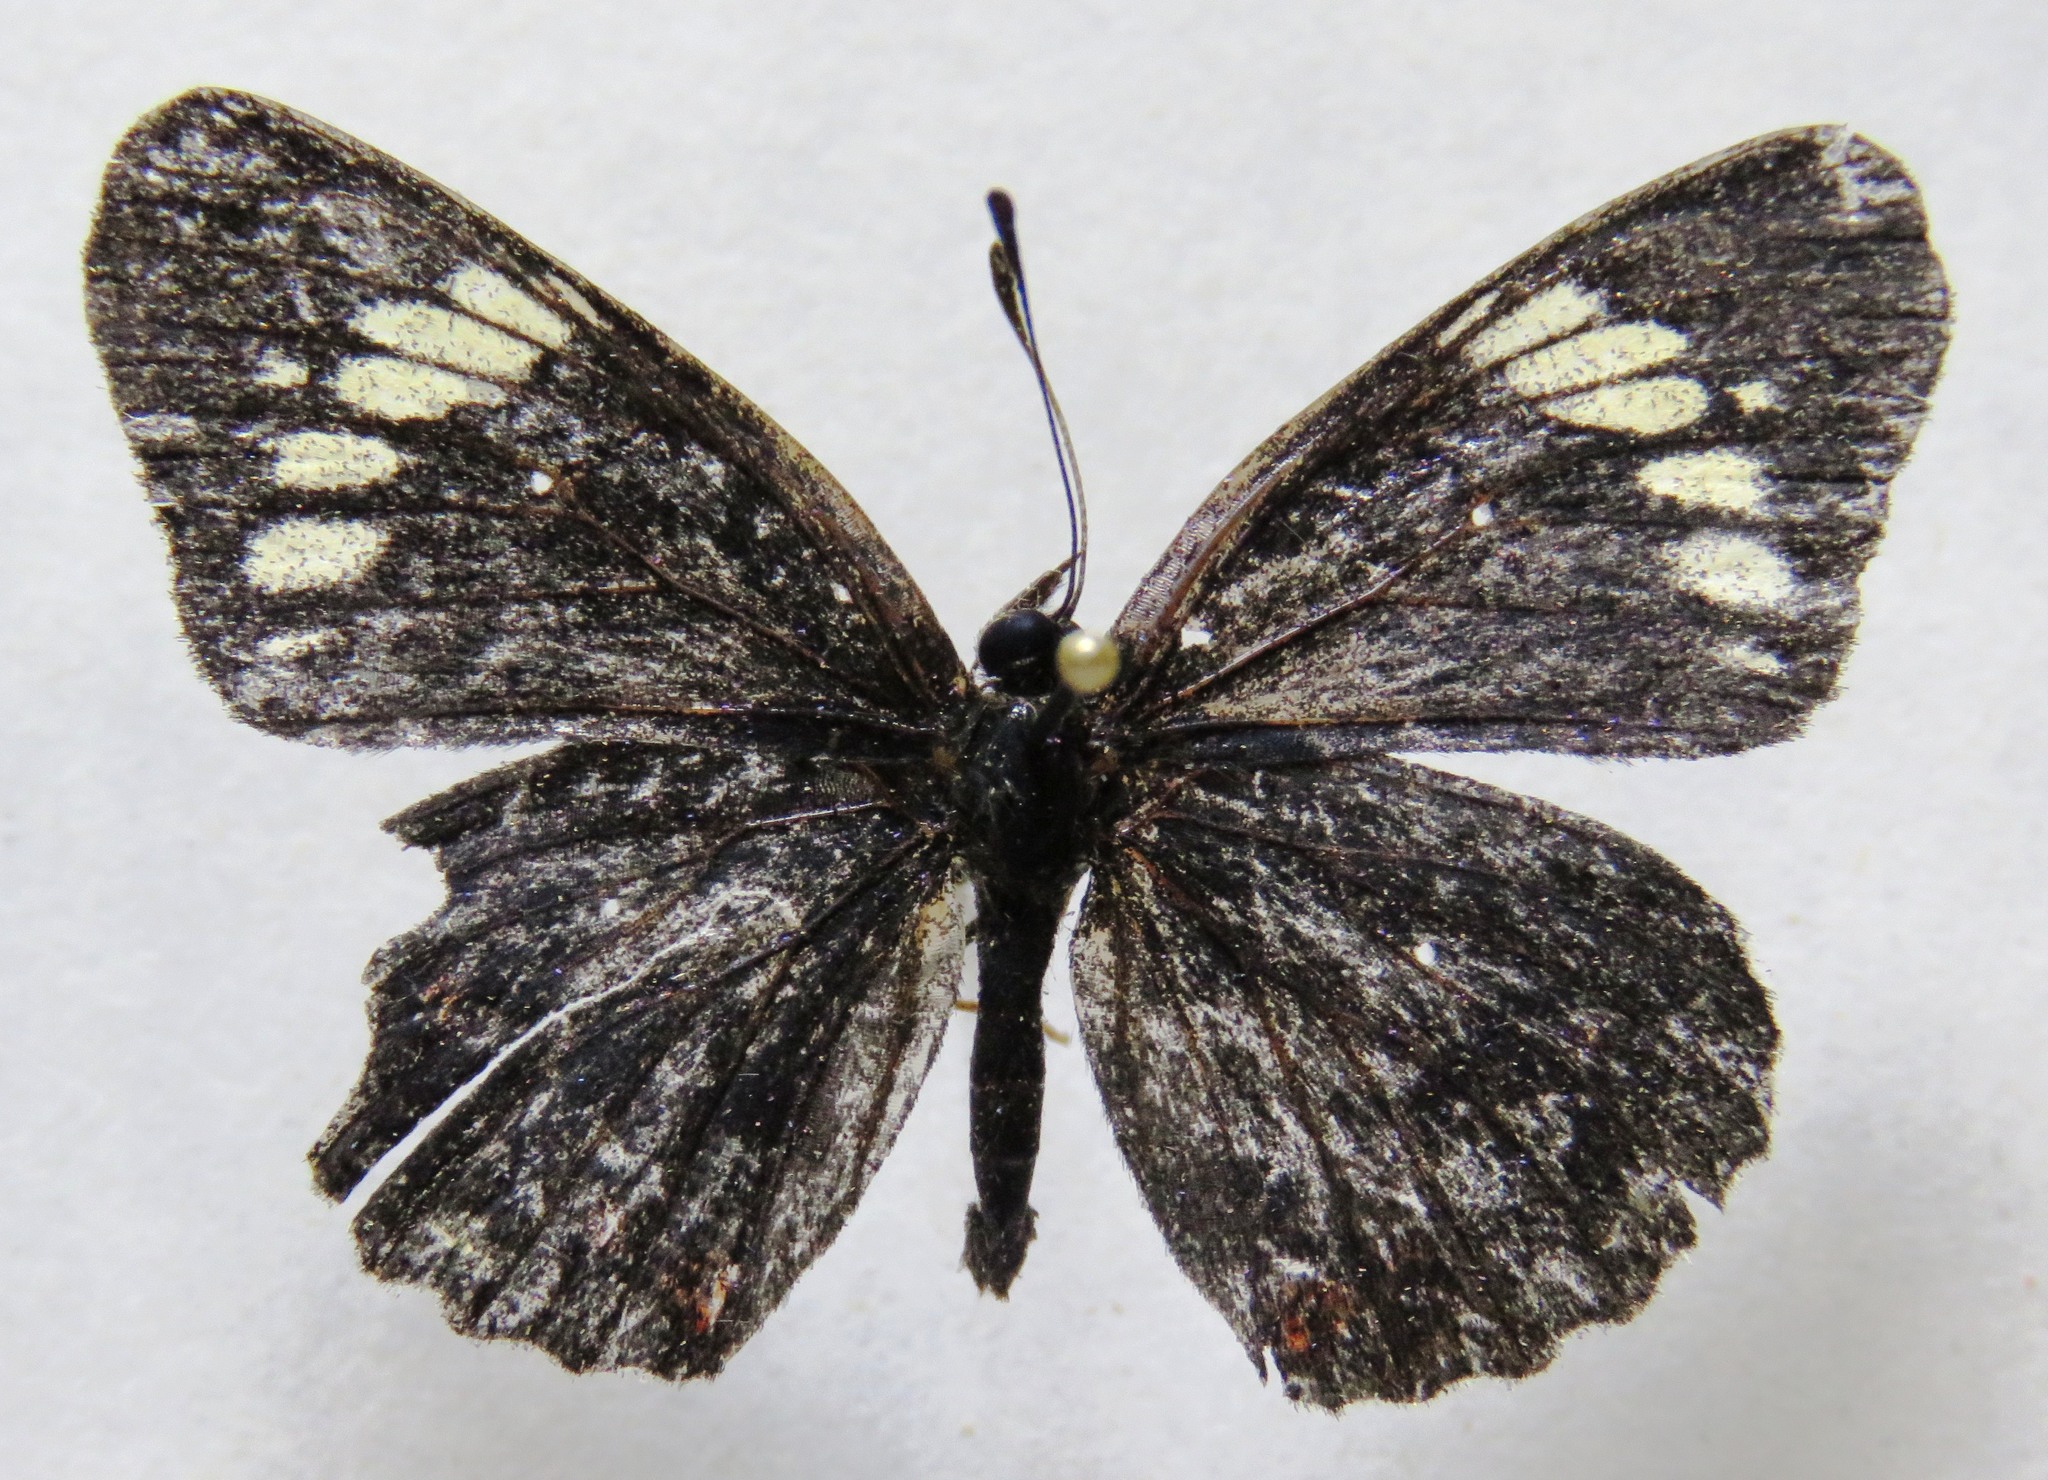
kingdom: Animalia
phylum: Arthropoda
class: Insecta
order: Lepidoptera
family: Nymphalidae
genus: Chlosyne
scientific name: Chlosyne melanarge
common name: Cream-banded checkerspot
